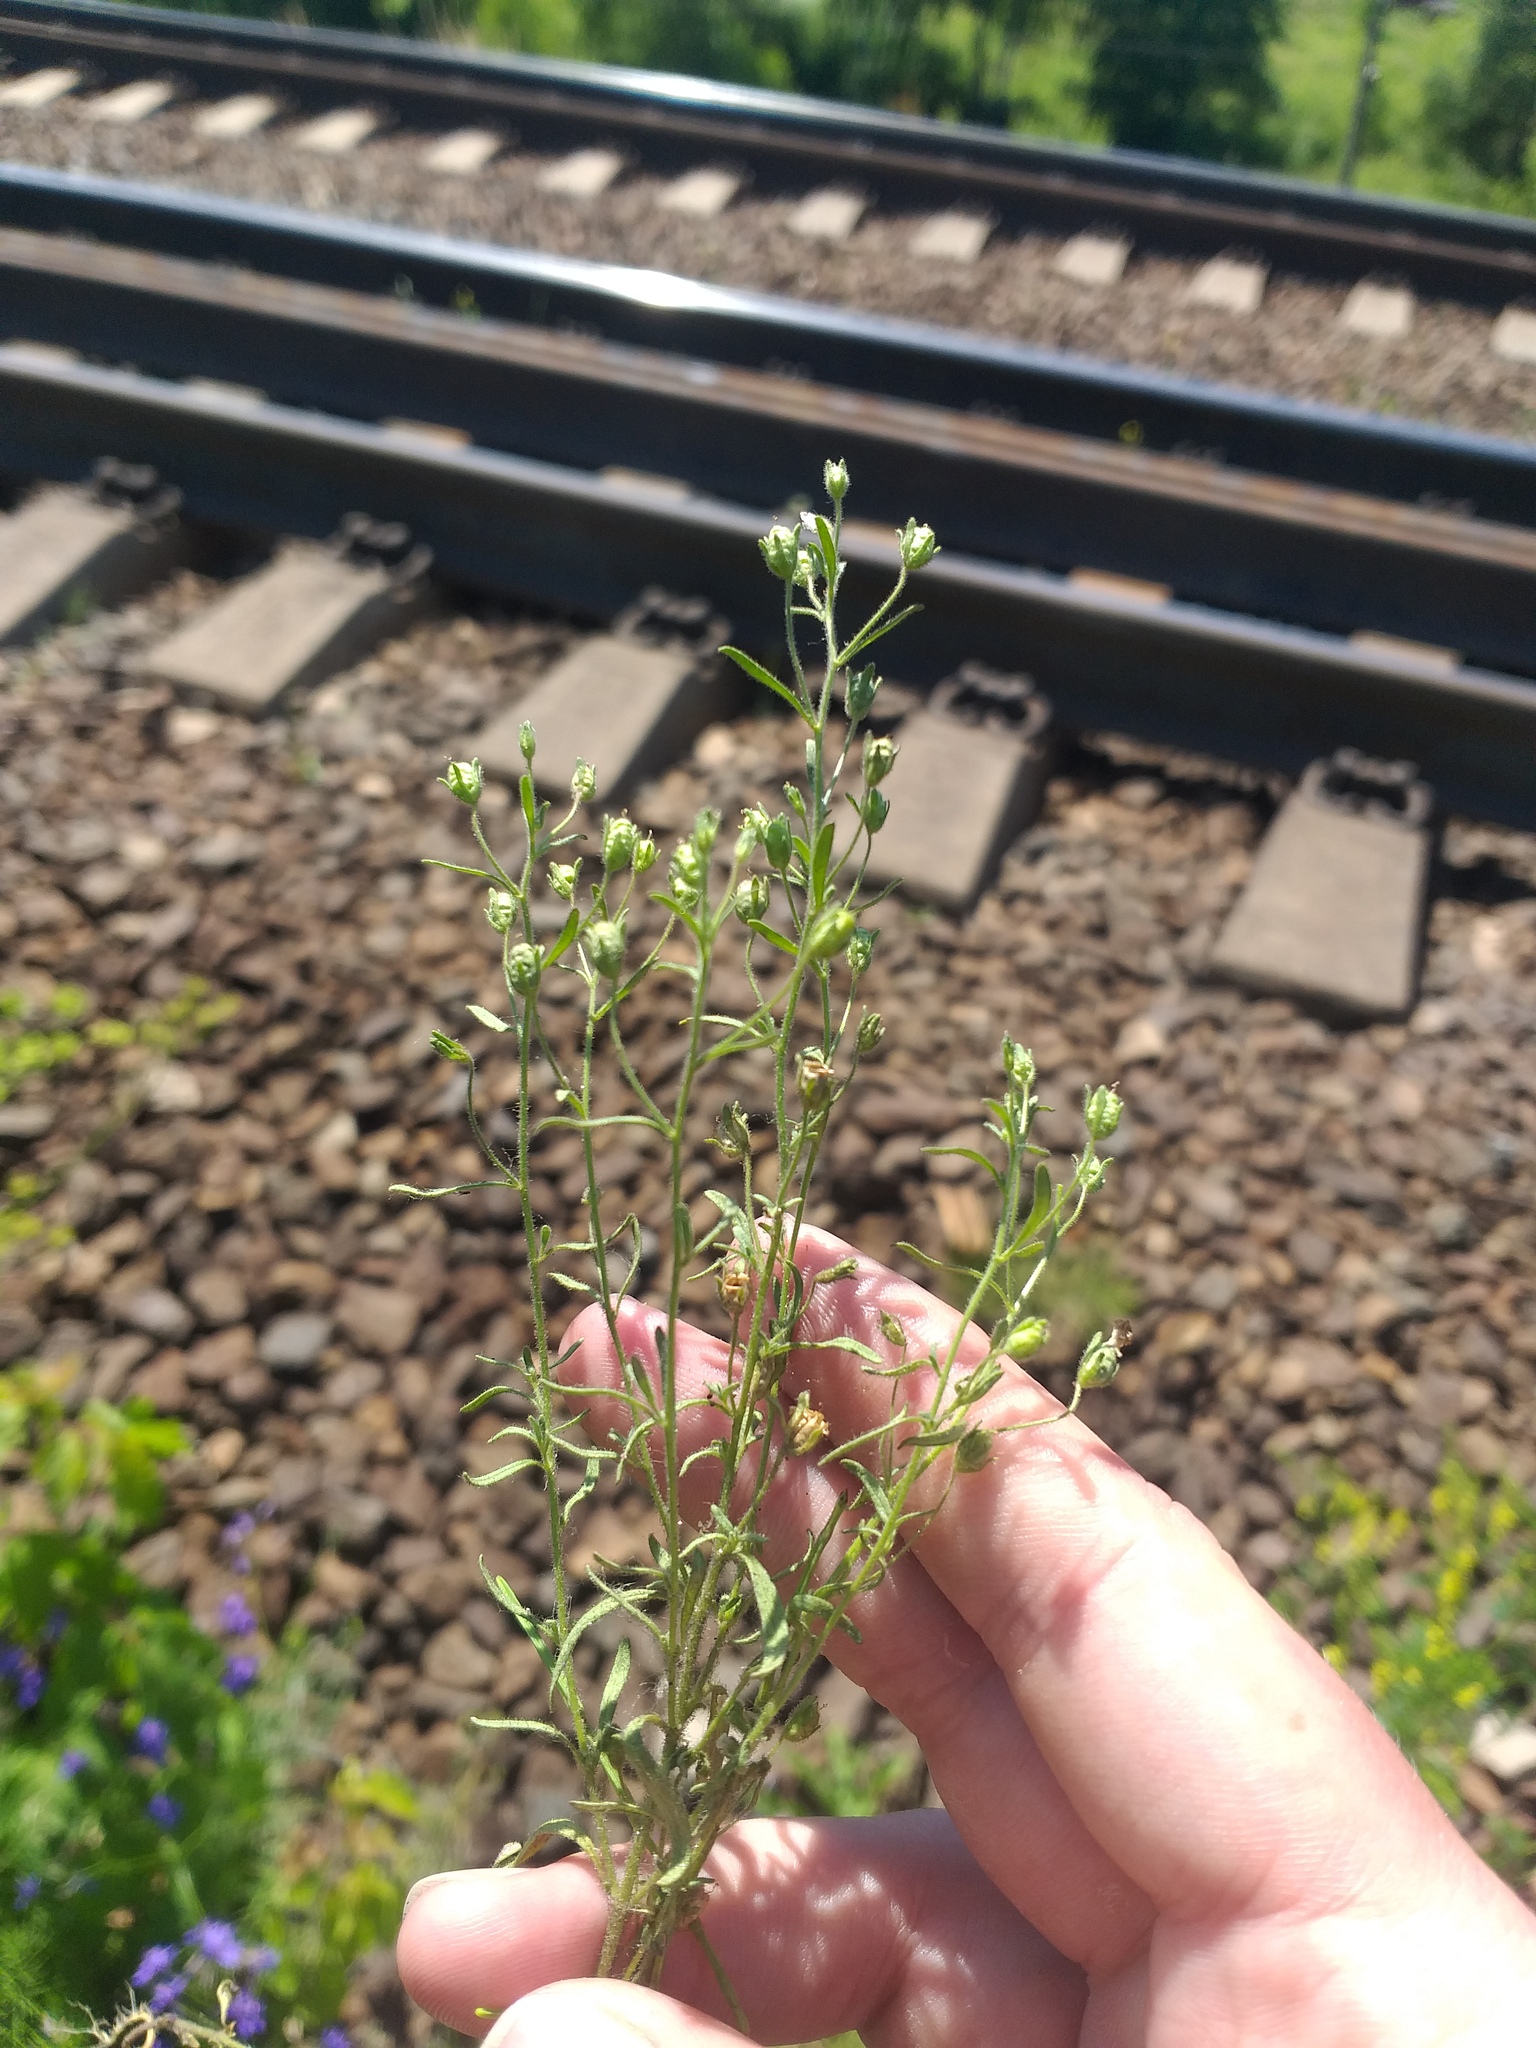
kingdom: Plantae
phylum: Tracheophyta
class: Magnoliopsida
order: Lamiales
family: Plantaginaceae
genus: Chaenorhinum
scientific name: Chaenorhinum minus
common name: Dwarf snapdragon
